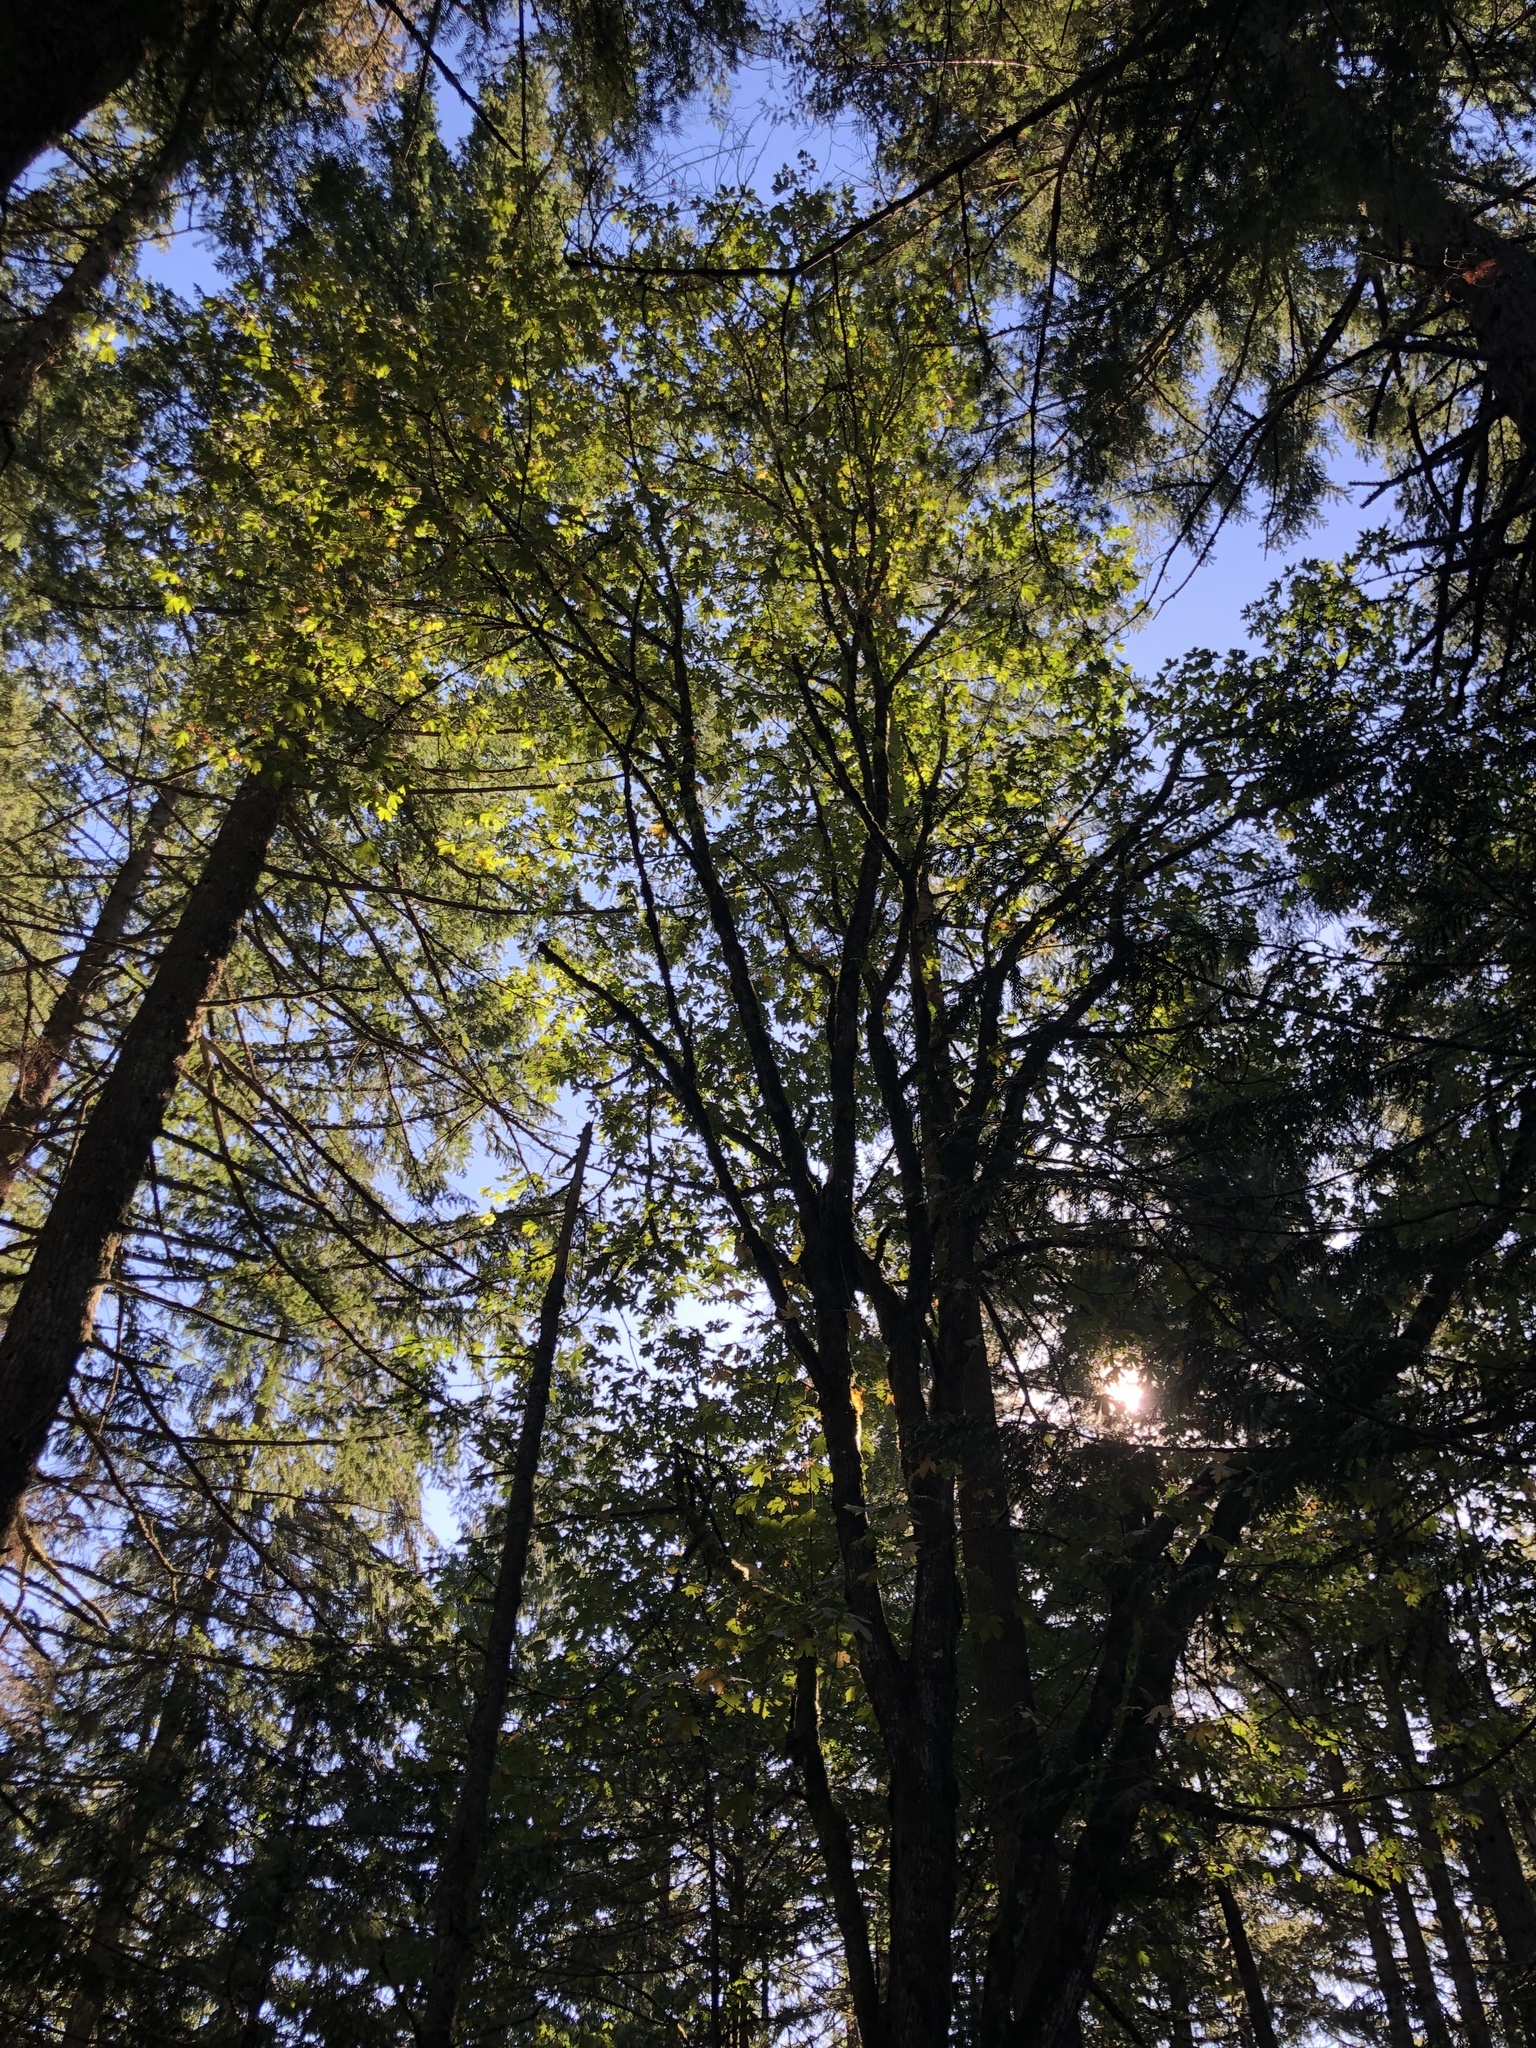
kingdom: Plantae
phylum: Tracheophyta
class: Magnoliopsida
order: Sapindales
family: Sapindaceae
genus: Acer
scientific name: Acer macrophyllum
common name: Oregon maple
